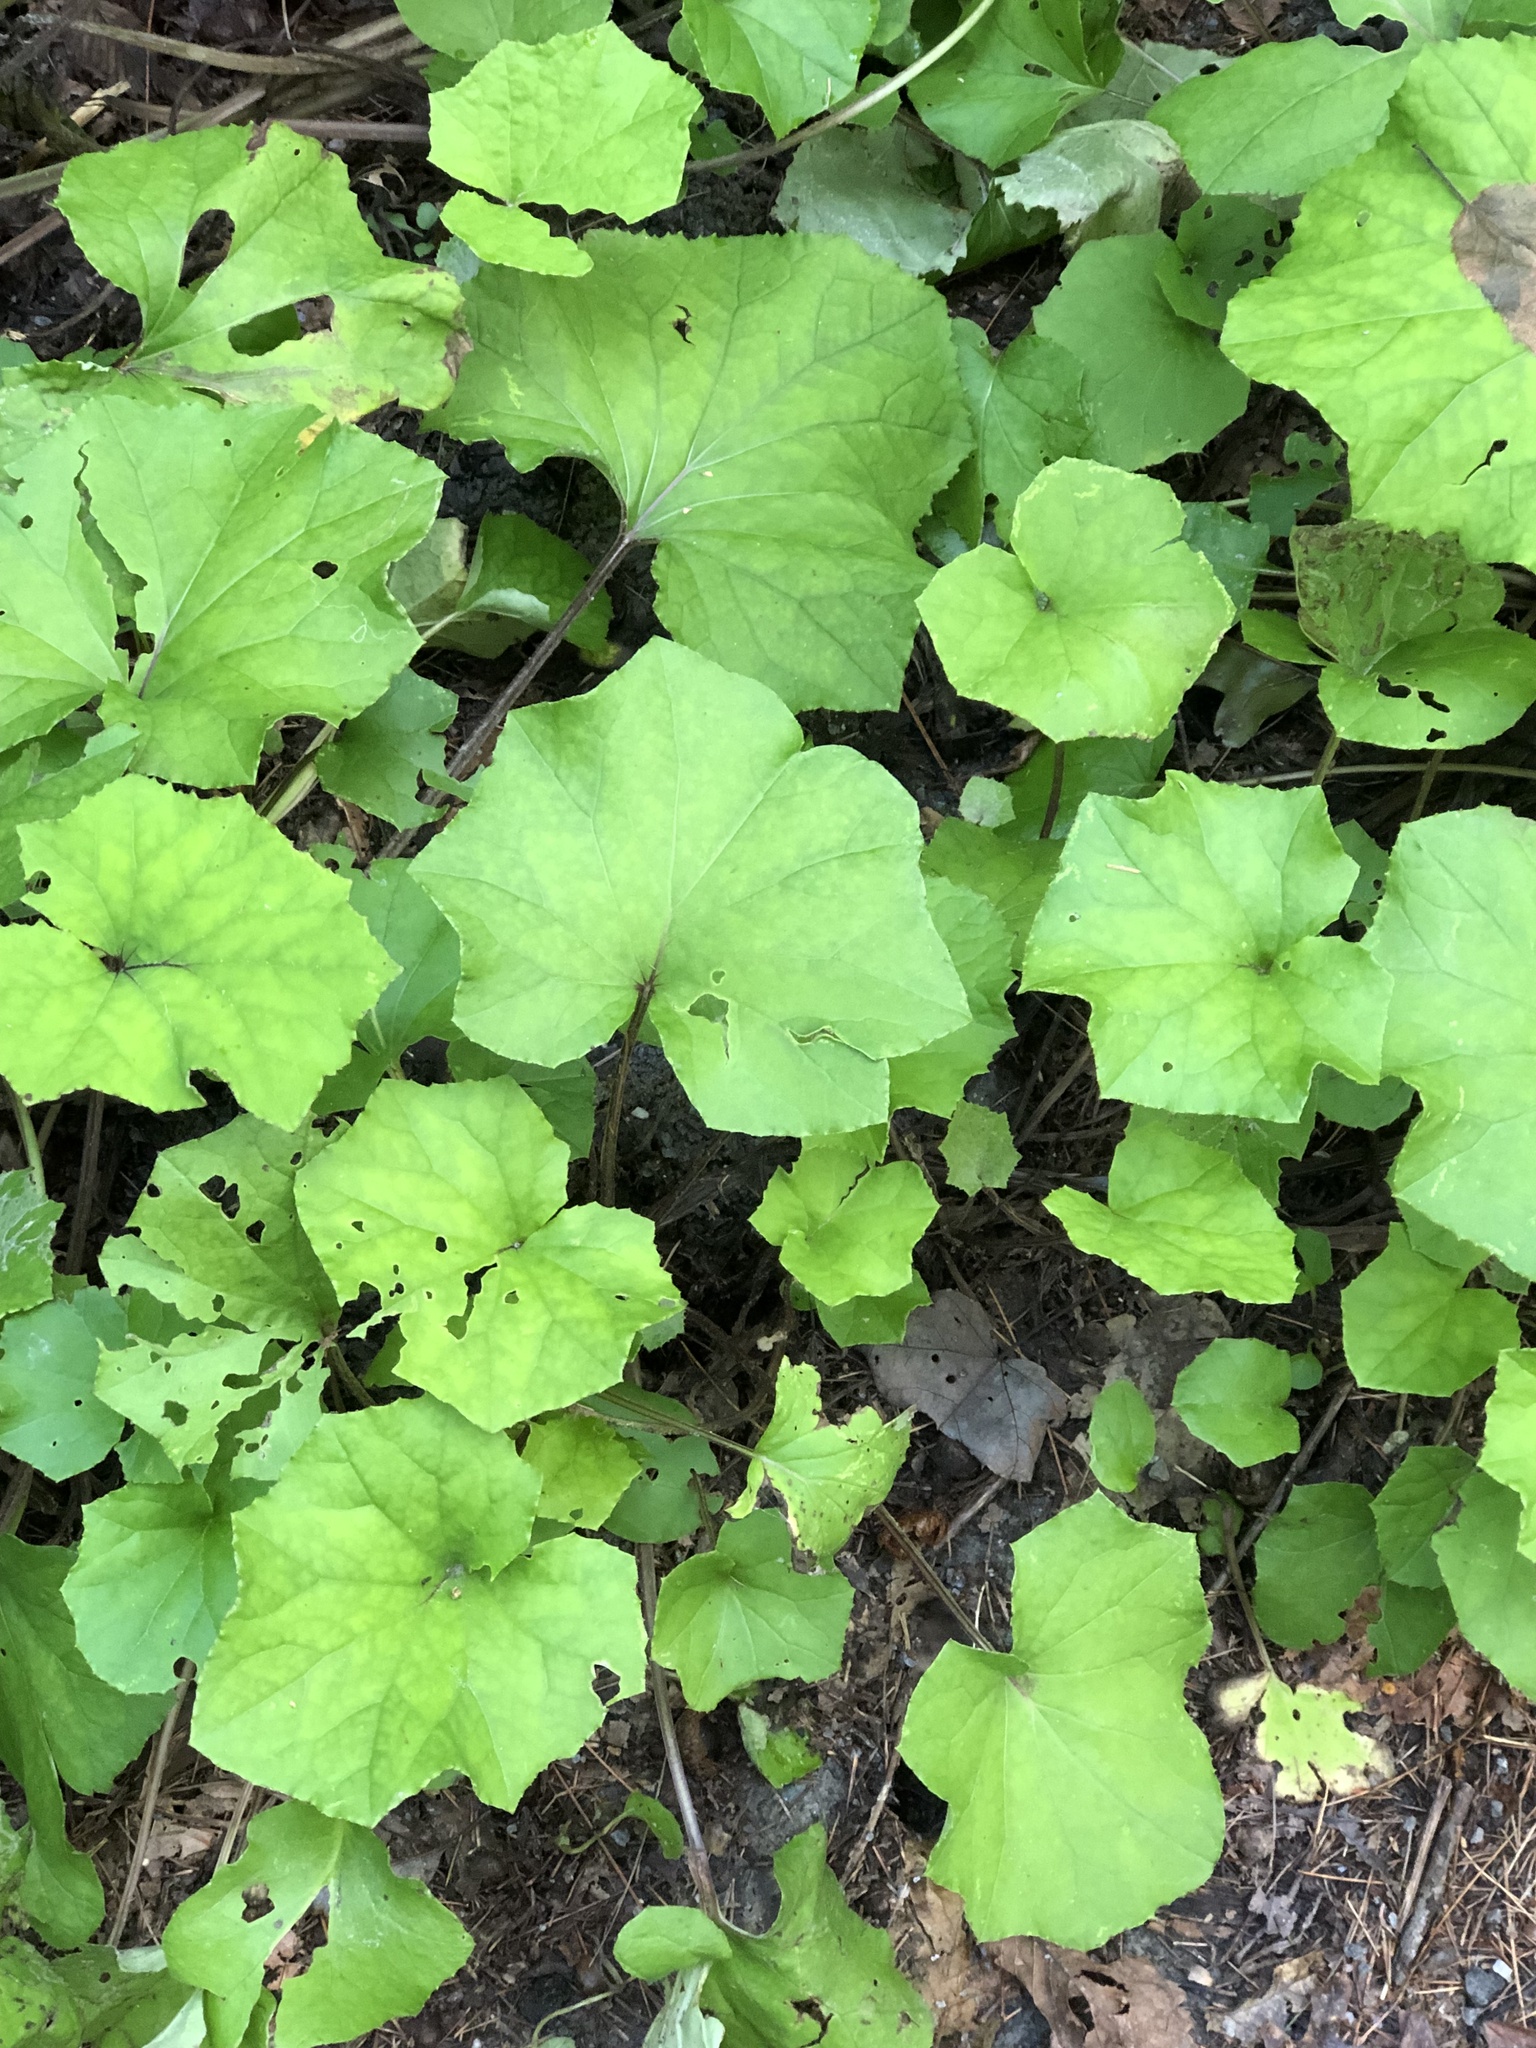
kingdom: Plantae
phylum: Tracheophyta
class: Magnoliopsida
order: Asterales
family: Asteraceae
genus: Tussilago
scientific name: Tussilago farfara
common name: Coltsfoot
